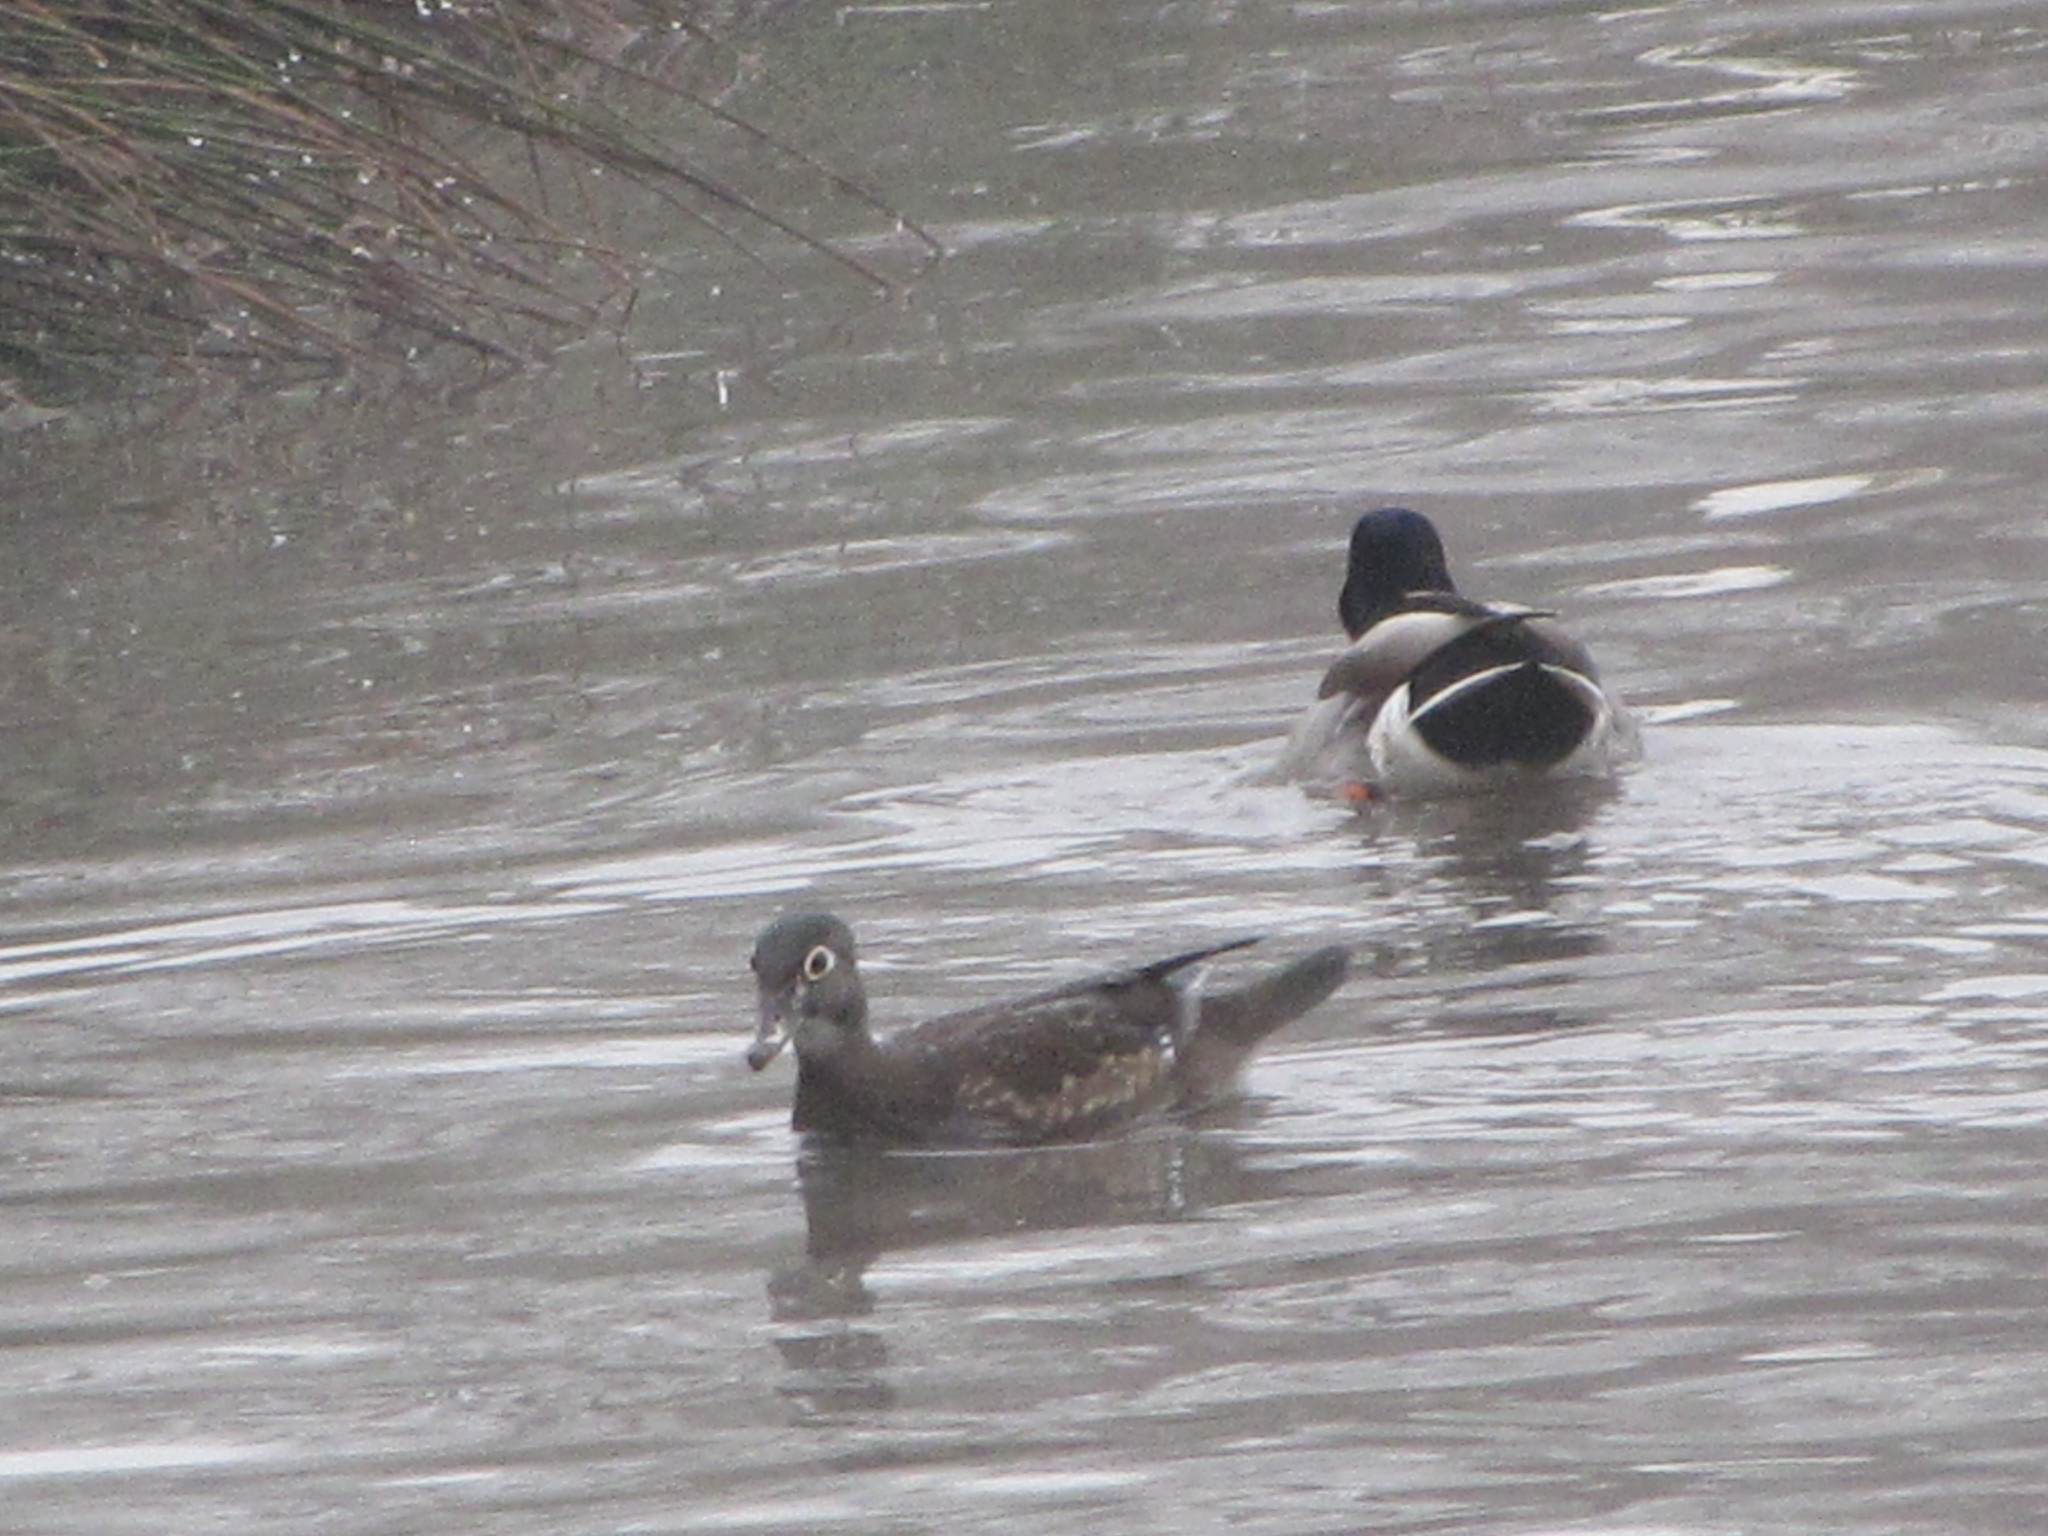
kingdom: Animalia
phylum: Chordata
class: Aves
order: Anseriformes
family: Anatidae
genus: Aix
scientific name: Aix sponsa
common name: Wood duck
